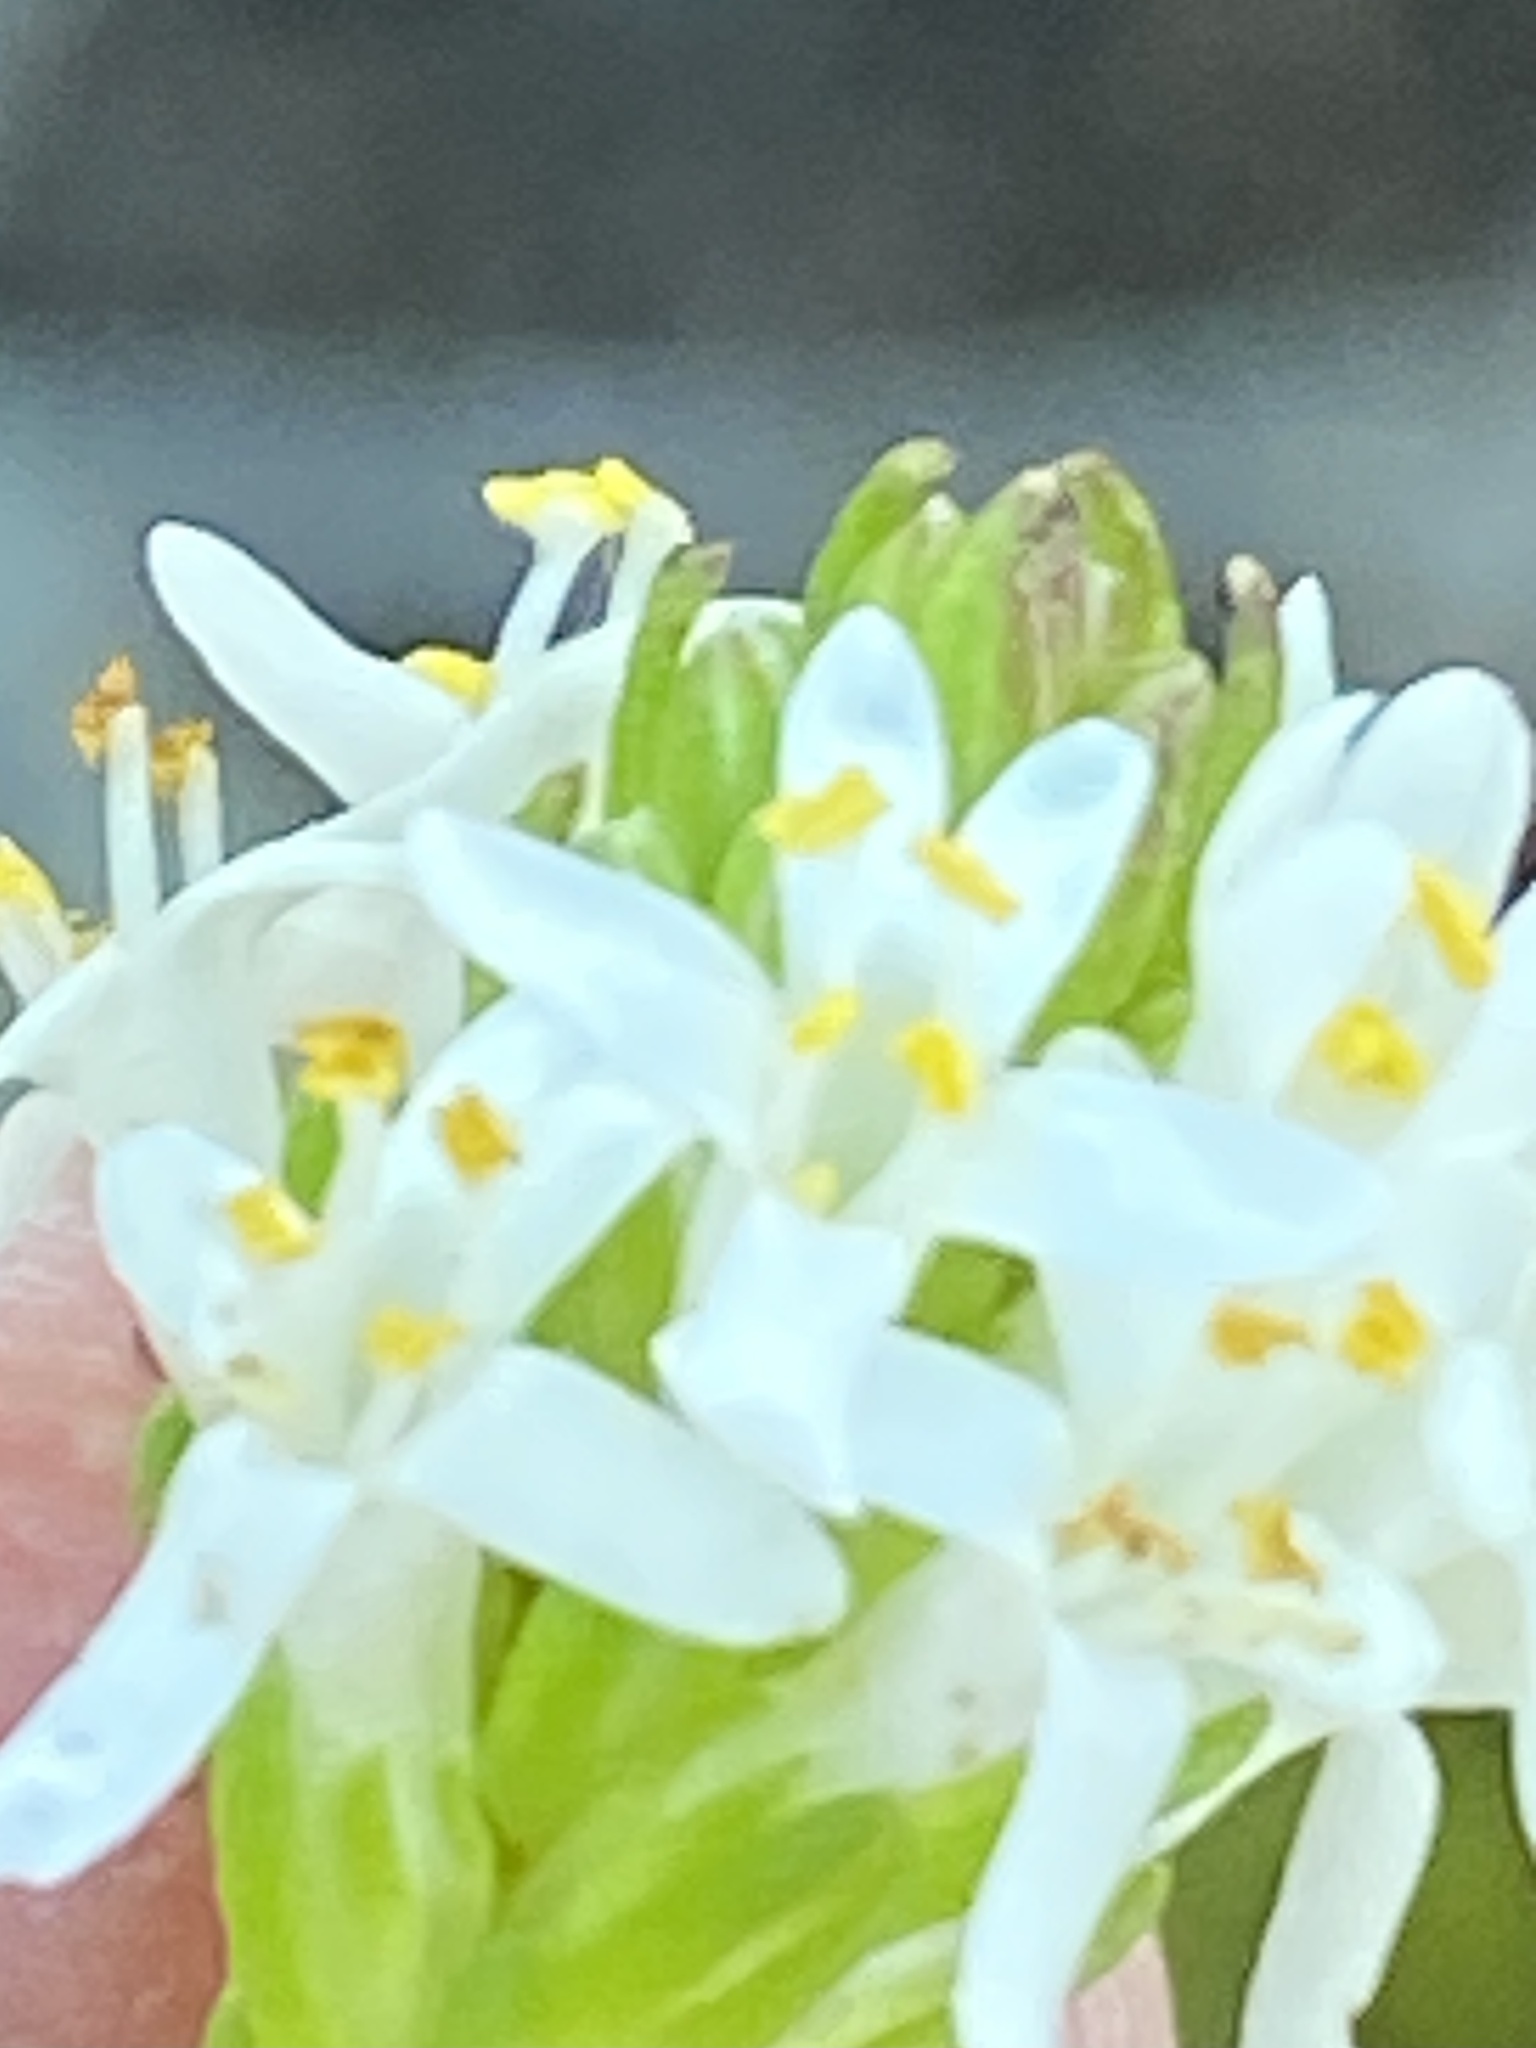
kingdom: Plantae
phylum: Tracheophyta
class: Magnoliopsida
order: Lamiales
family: Scrophulariaceae
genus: Selago
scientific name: Selago diffusa
